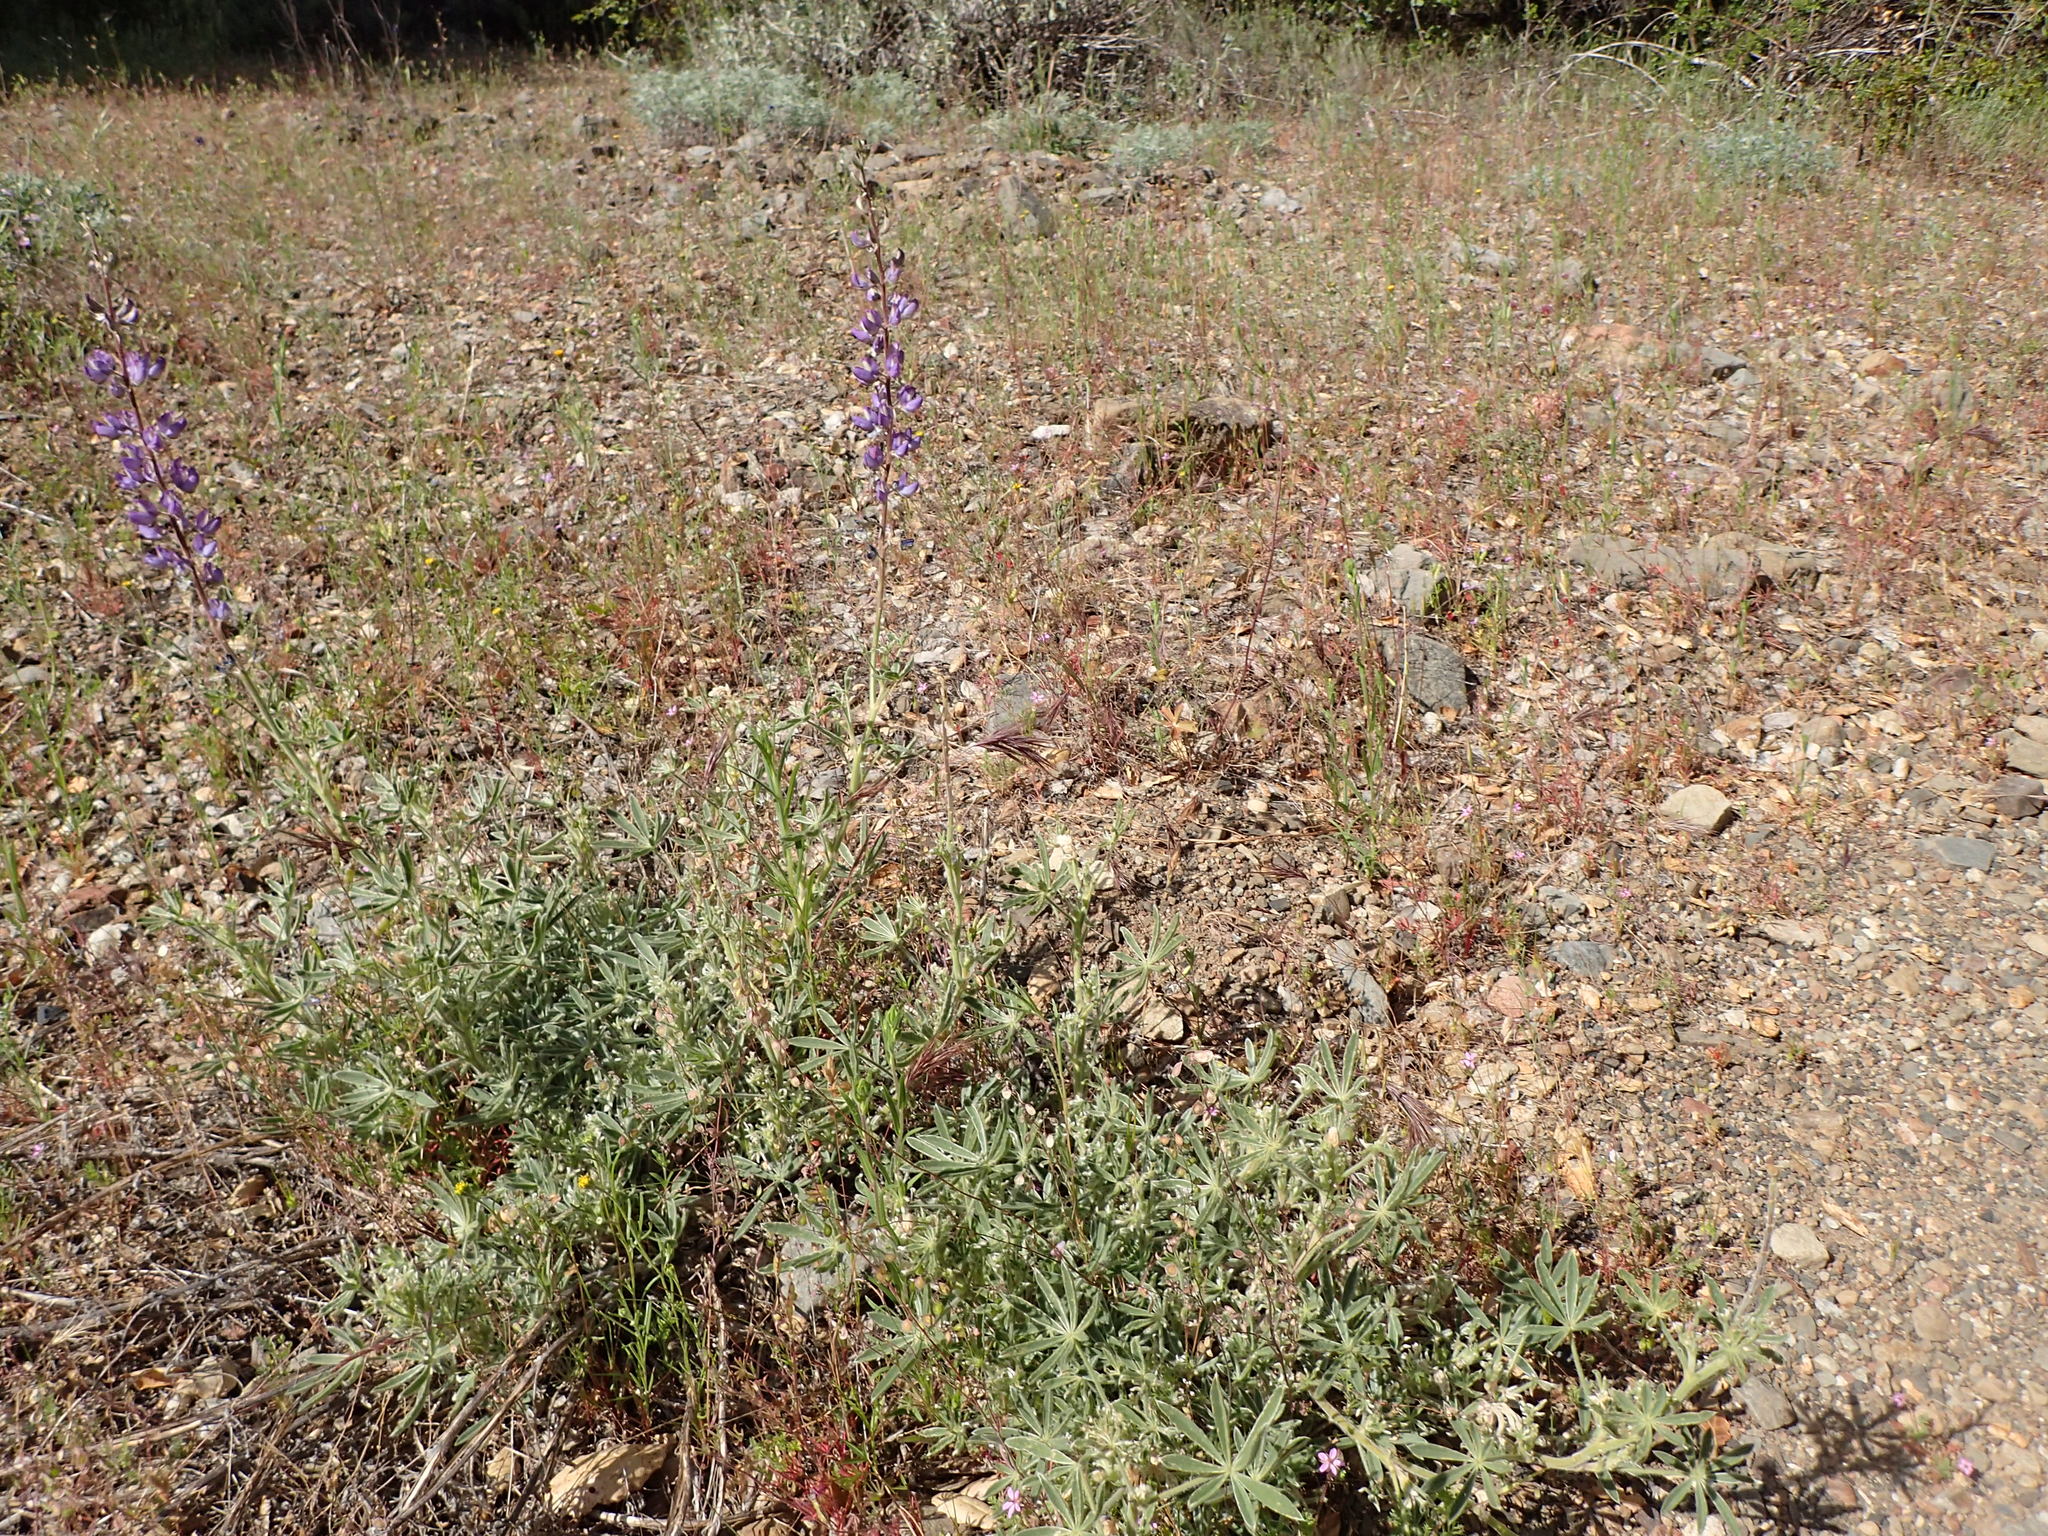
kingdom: Plantae
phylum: Tracheophyta
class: Magnoliopsida
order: Fabales
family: Fabaceae
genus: Lupinus
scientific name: Lupinus formosus
